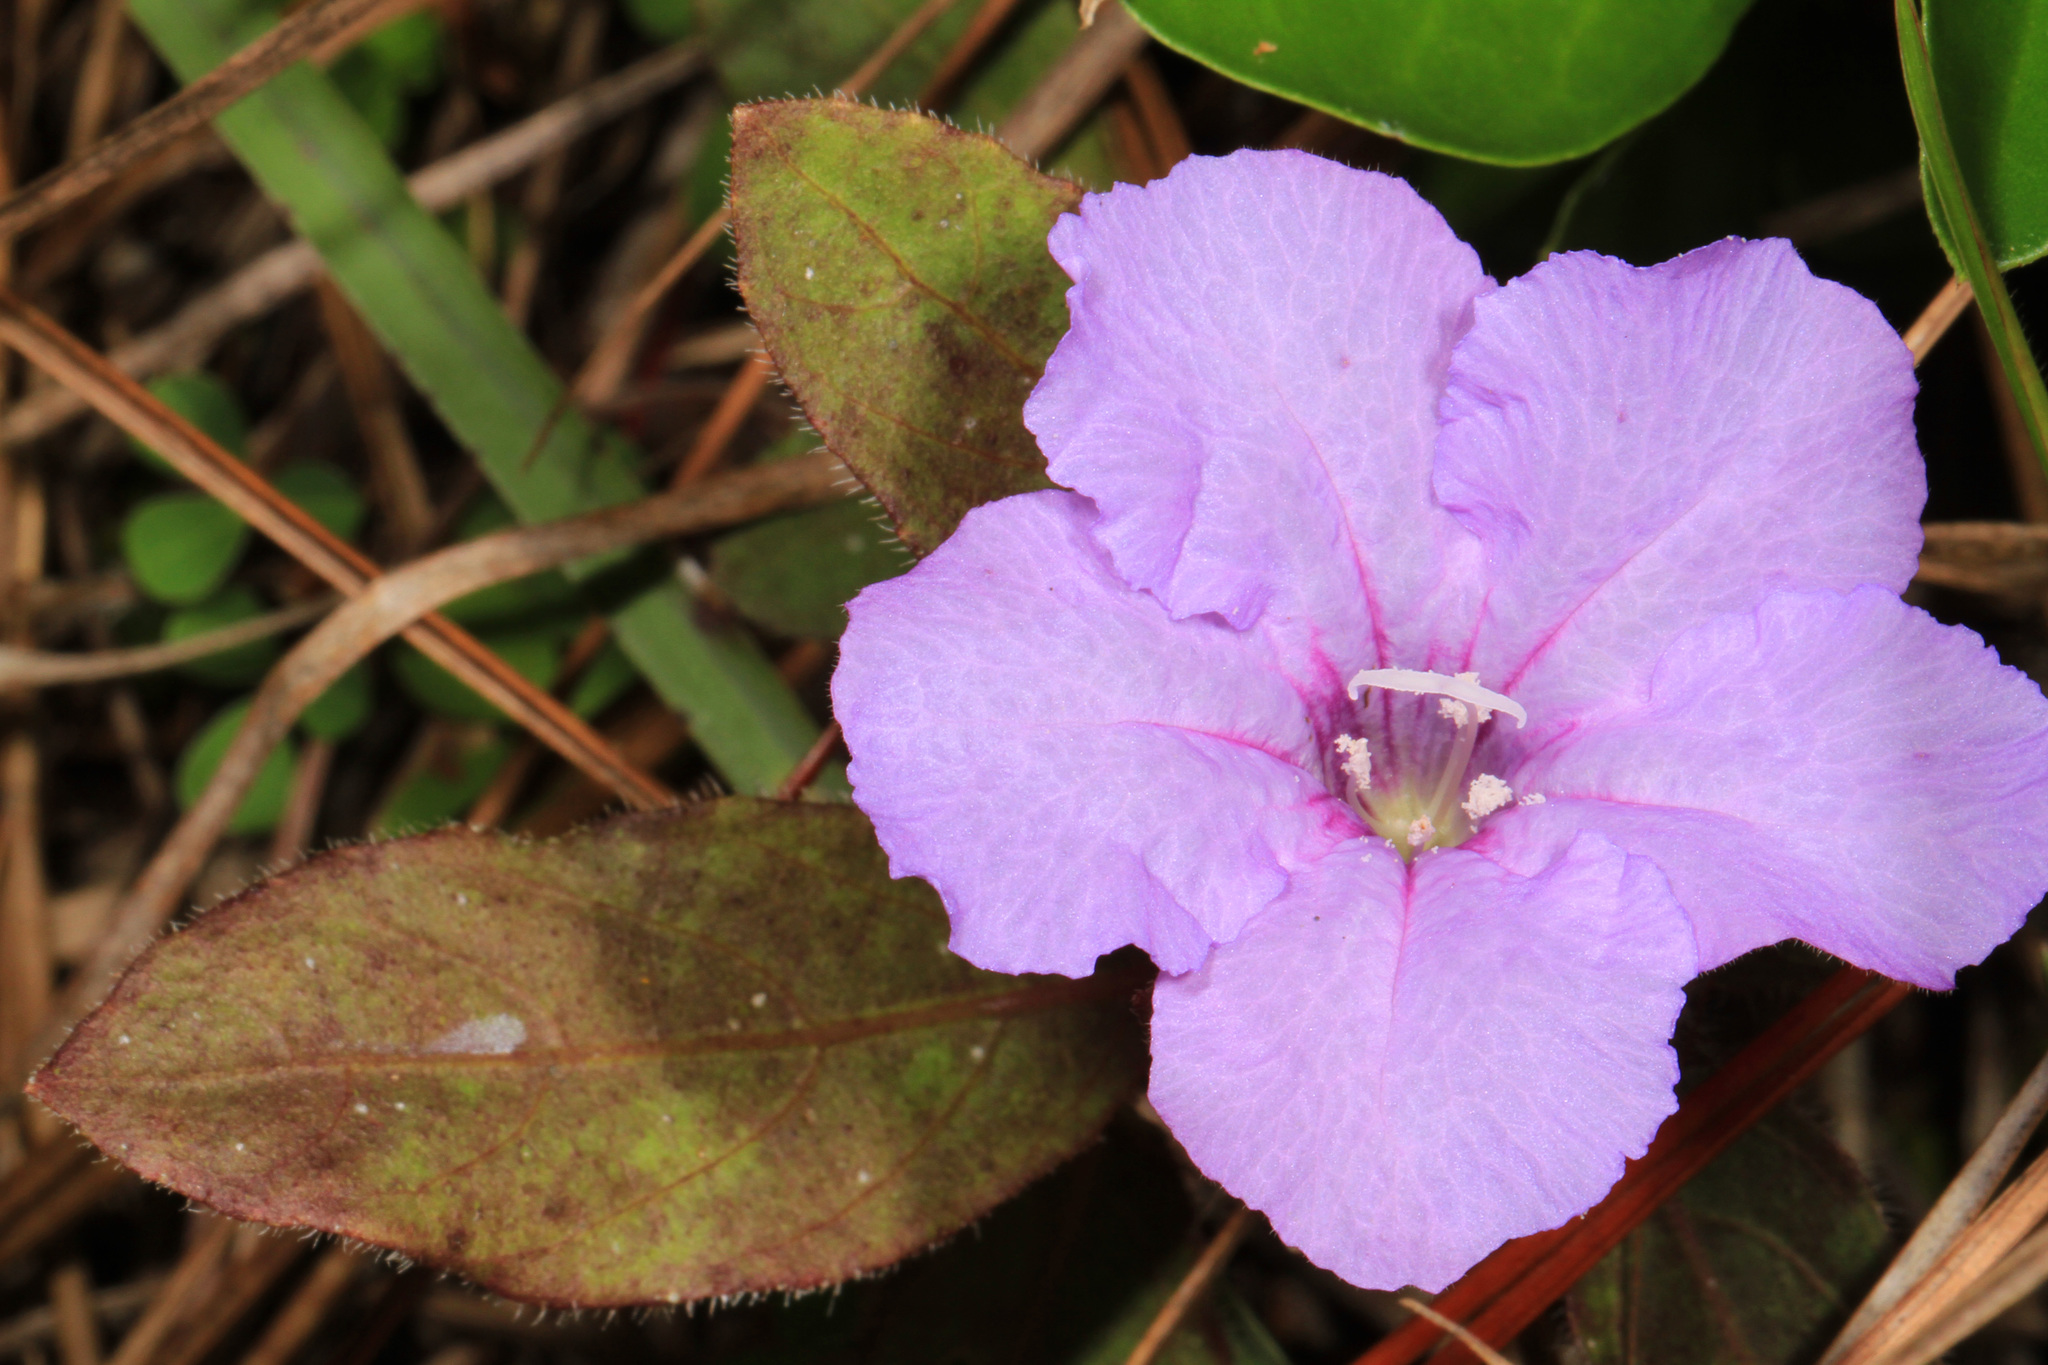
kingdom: Plantae
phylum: Tracheophyta
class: Magnoliopsida
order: Lamiales
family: Acanthaceae
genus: Ruellia
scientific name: Ruellia caroliniensis
